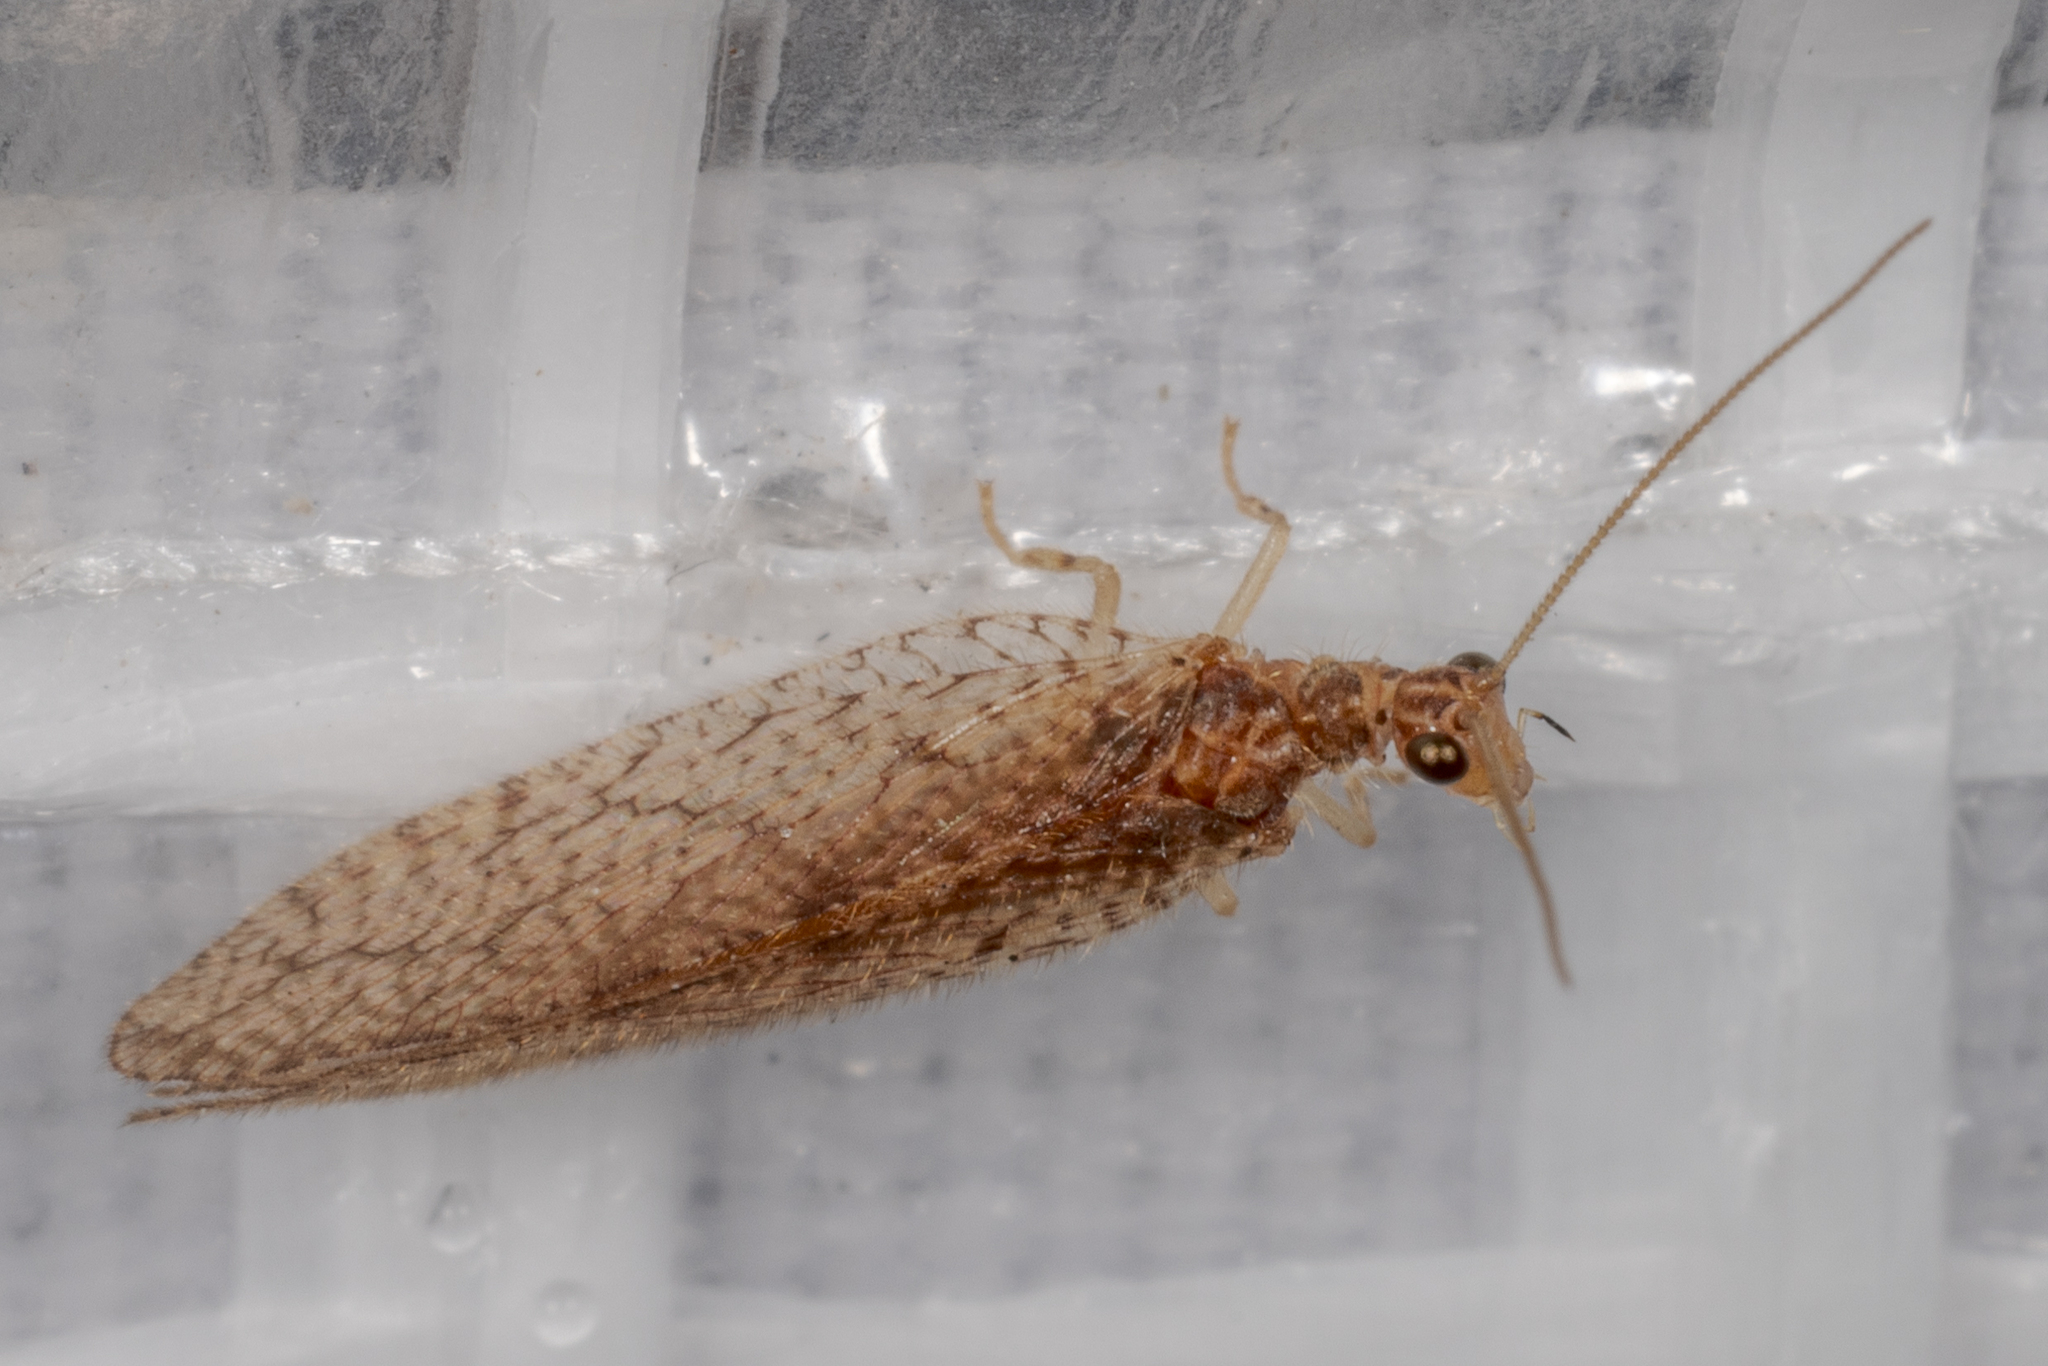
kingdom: Animalia
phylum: Arthropoda
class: Insecta
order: Neuroptera
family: Hemerobiidae
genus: Micromus
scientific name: Micromus posticus
